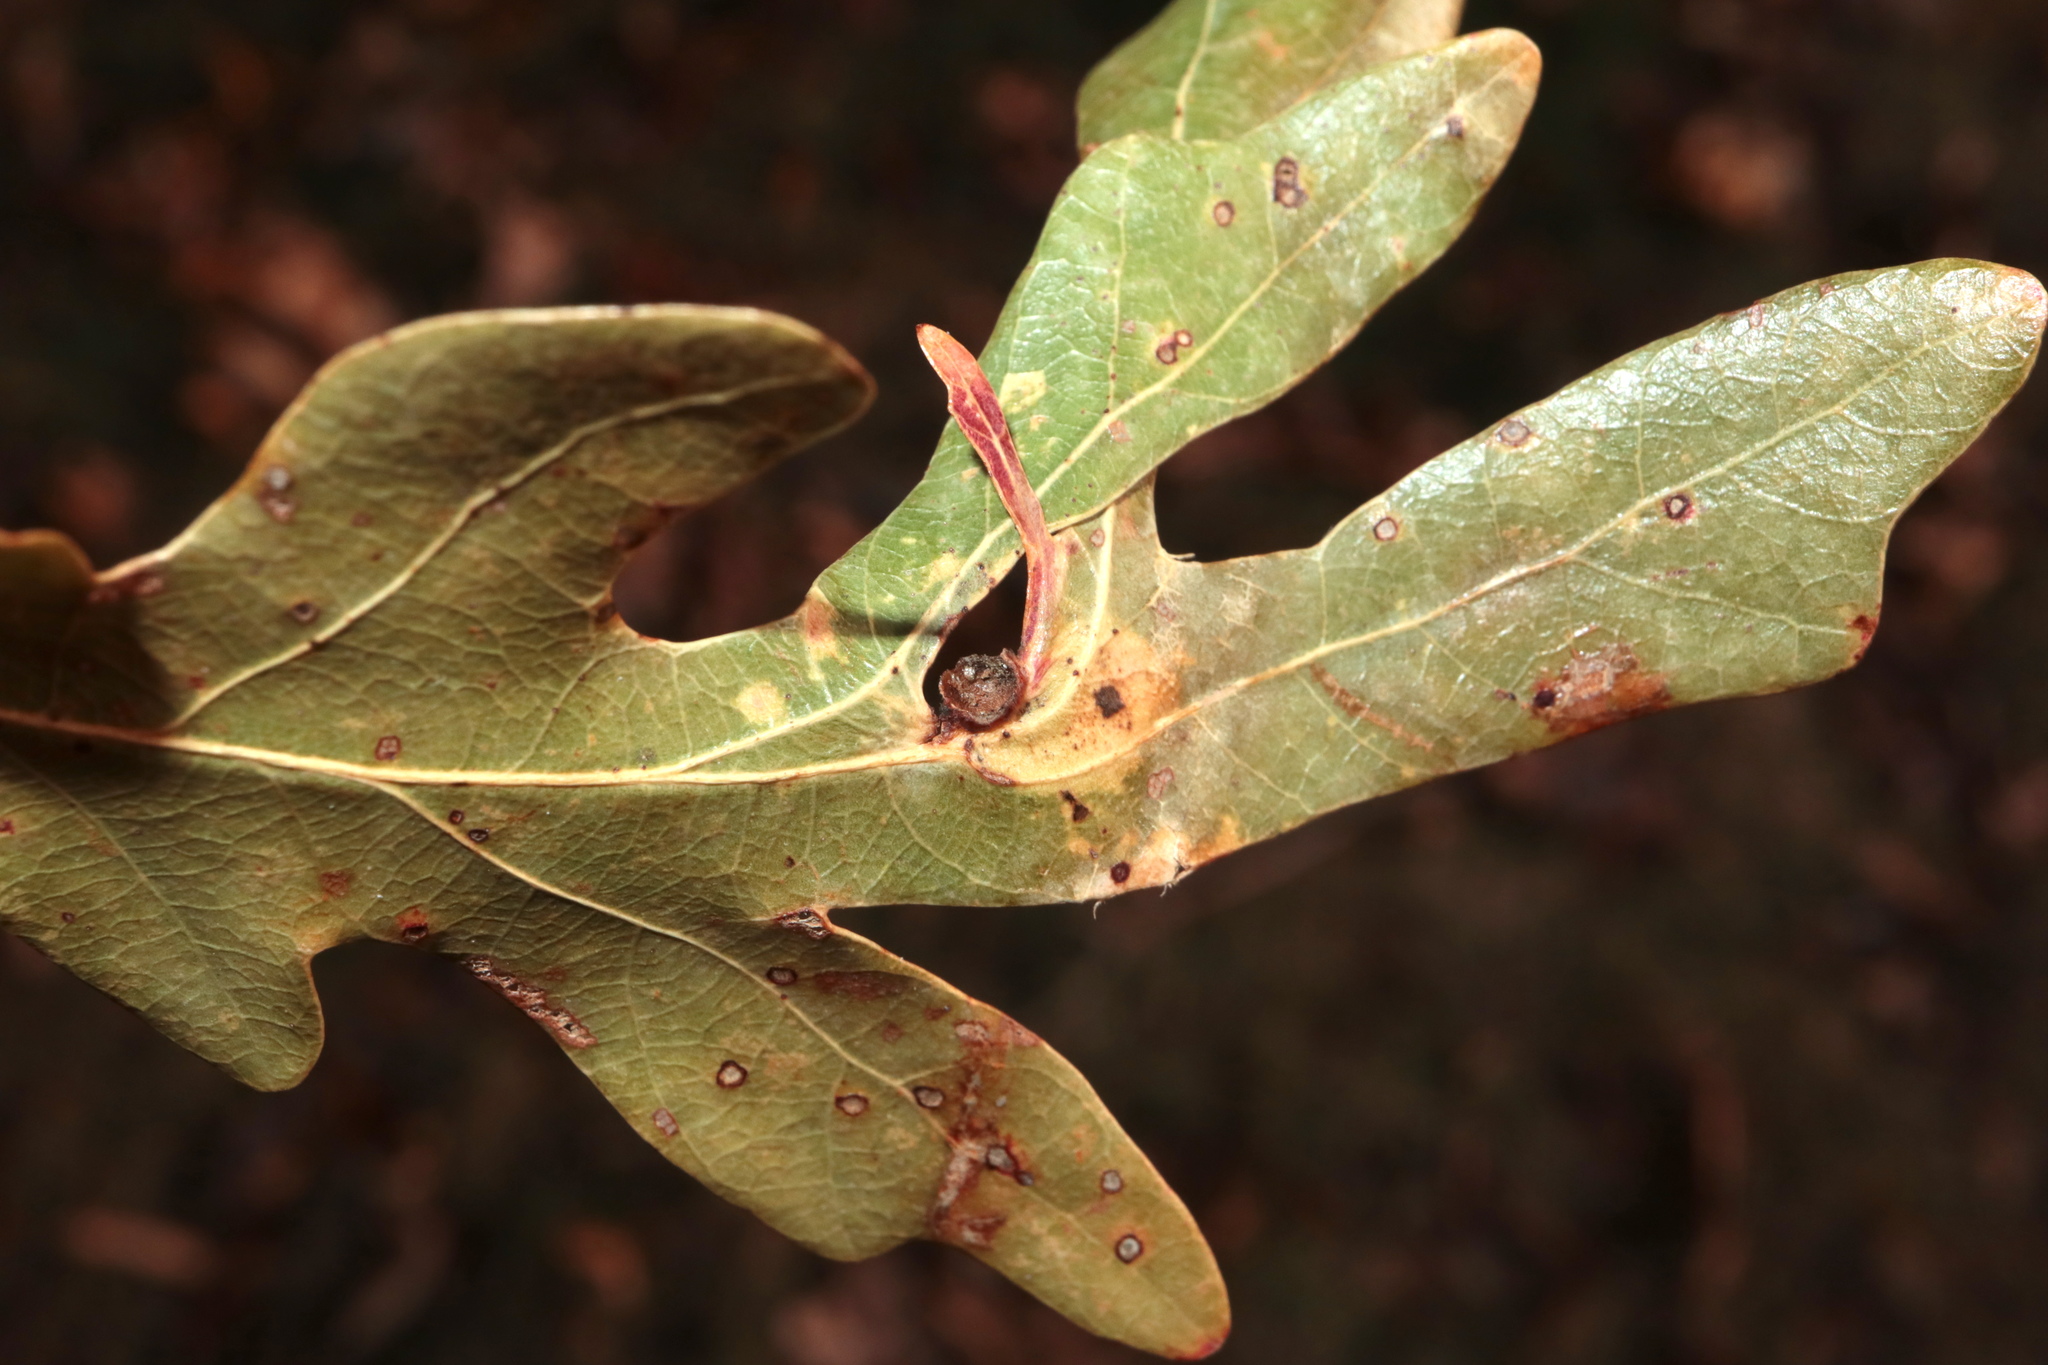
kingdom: Animalia
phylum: Arthropoda
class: Insecta
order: Hymenoptera
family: Cynipidae
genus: Andricus
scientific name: Andricus
